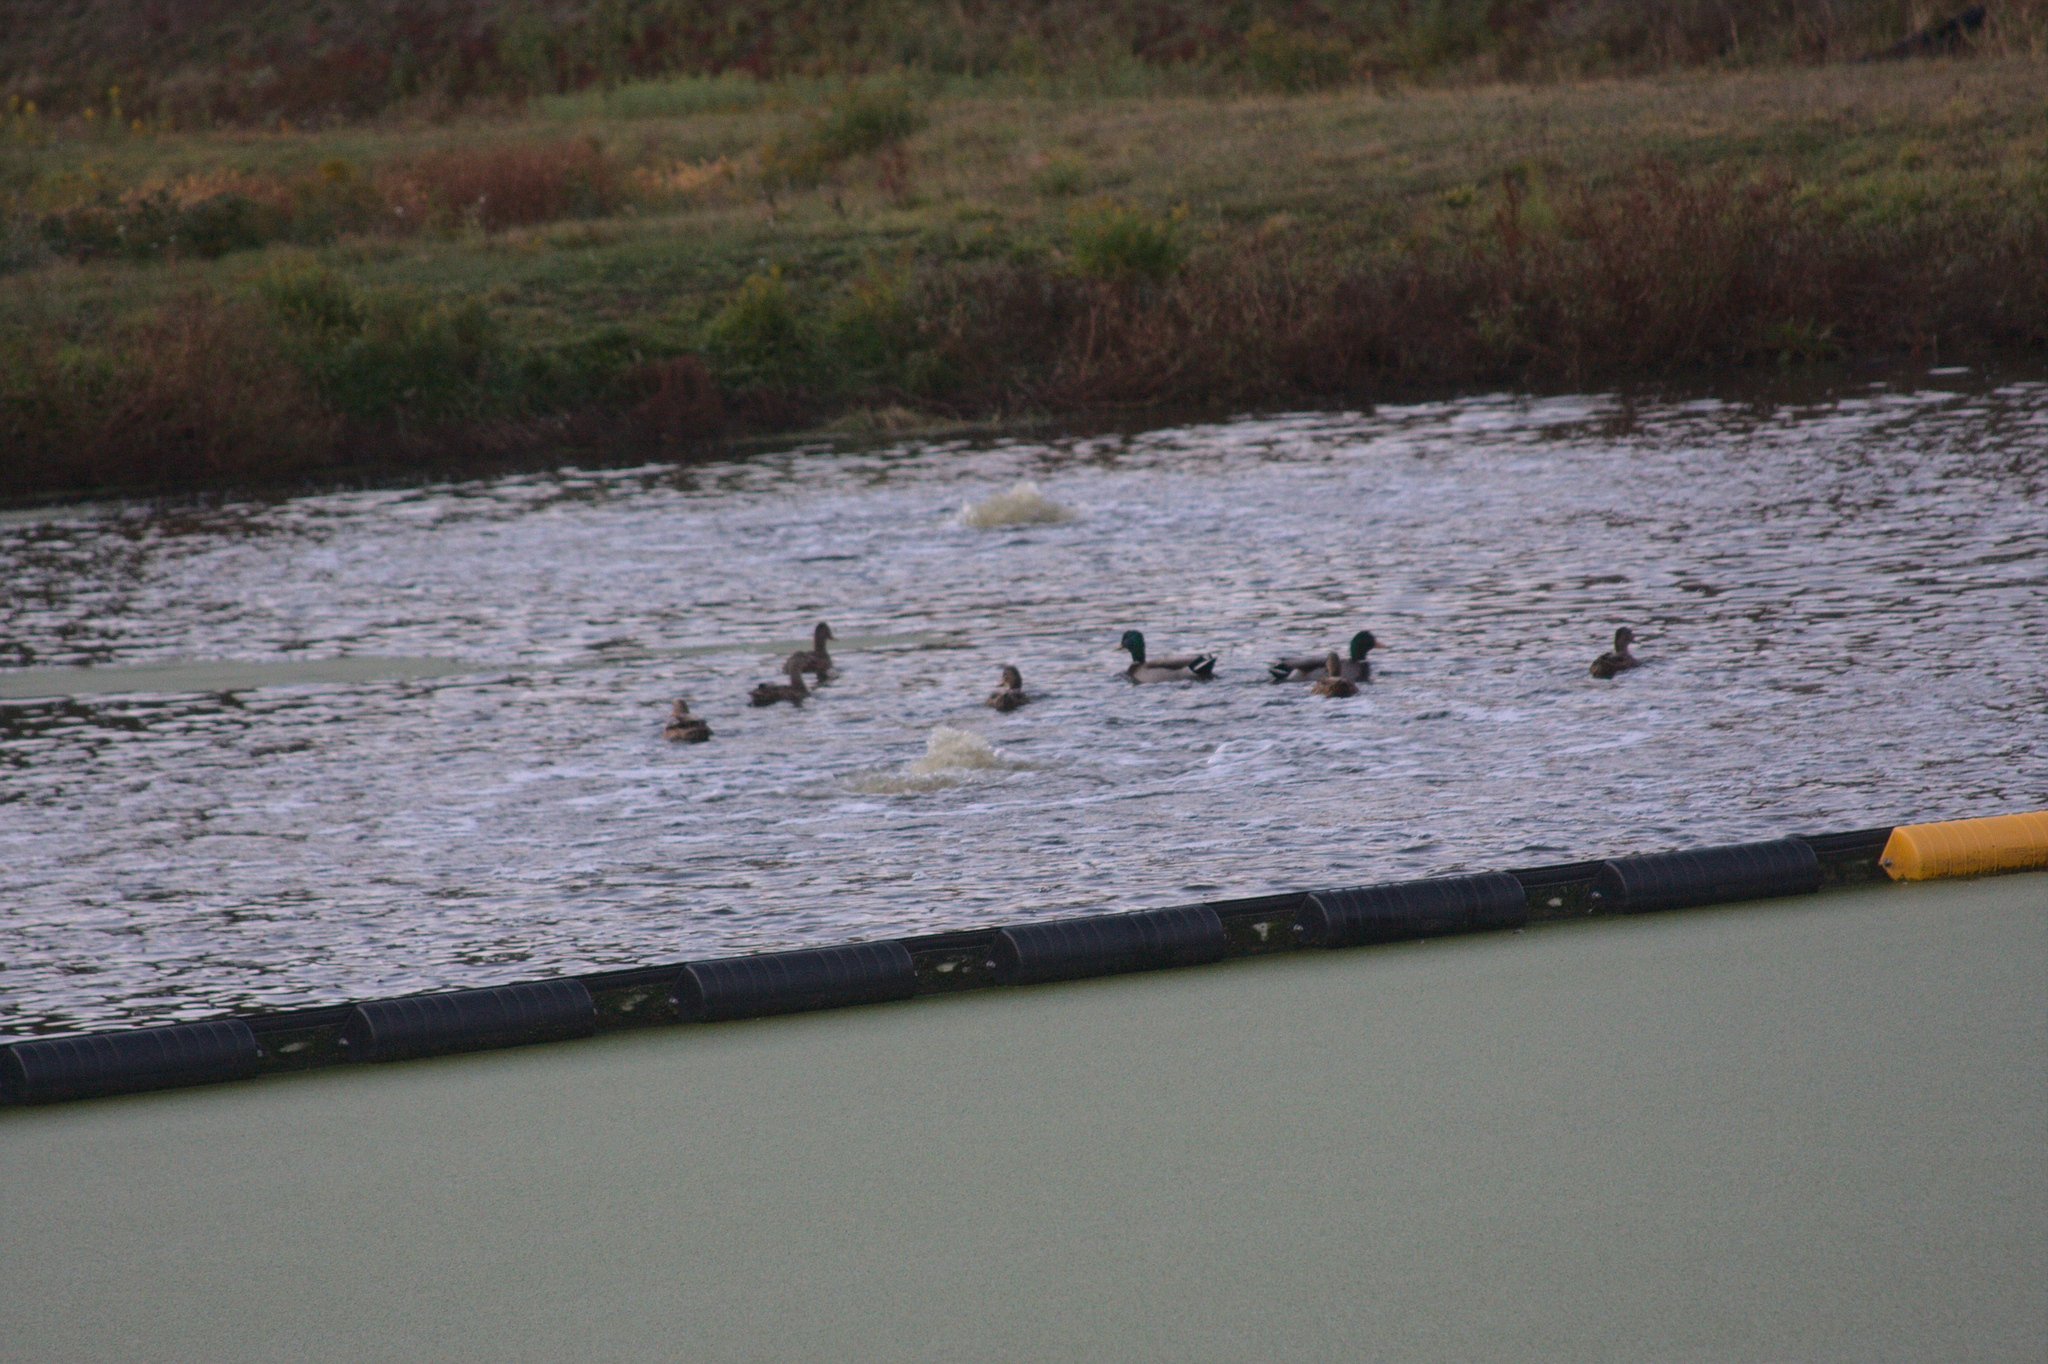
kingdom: Animalia
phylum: Chordata
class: Aves
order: Anseriformes
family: Anatidae
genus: Anas
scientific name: Anas platyrhynchos
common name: Mallard
